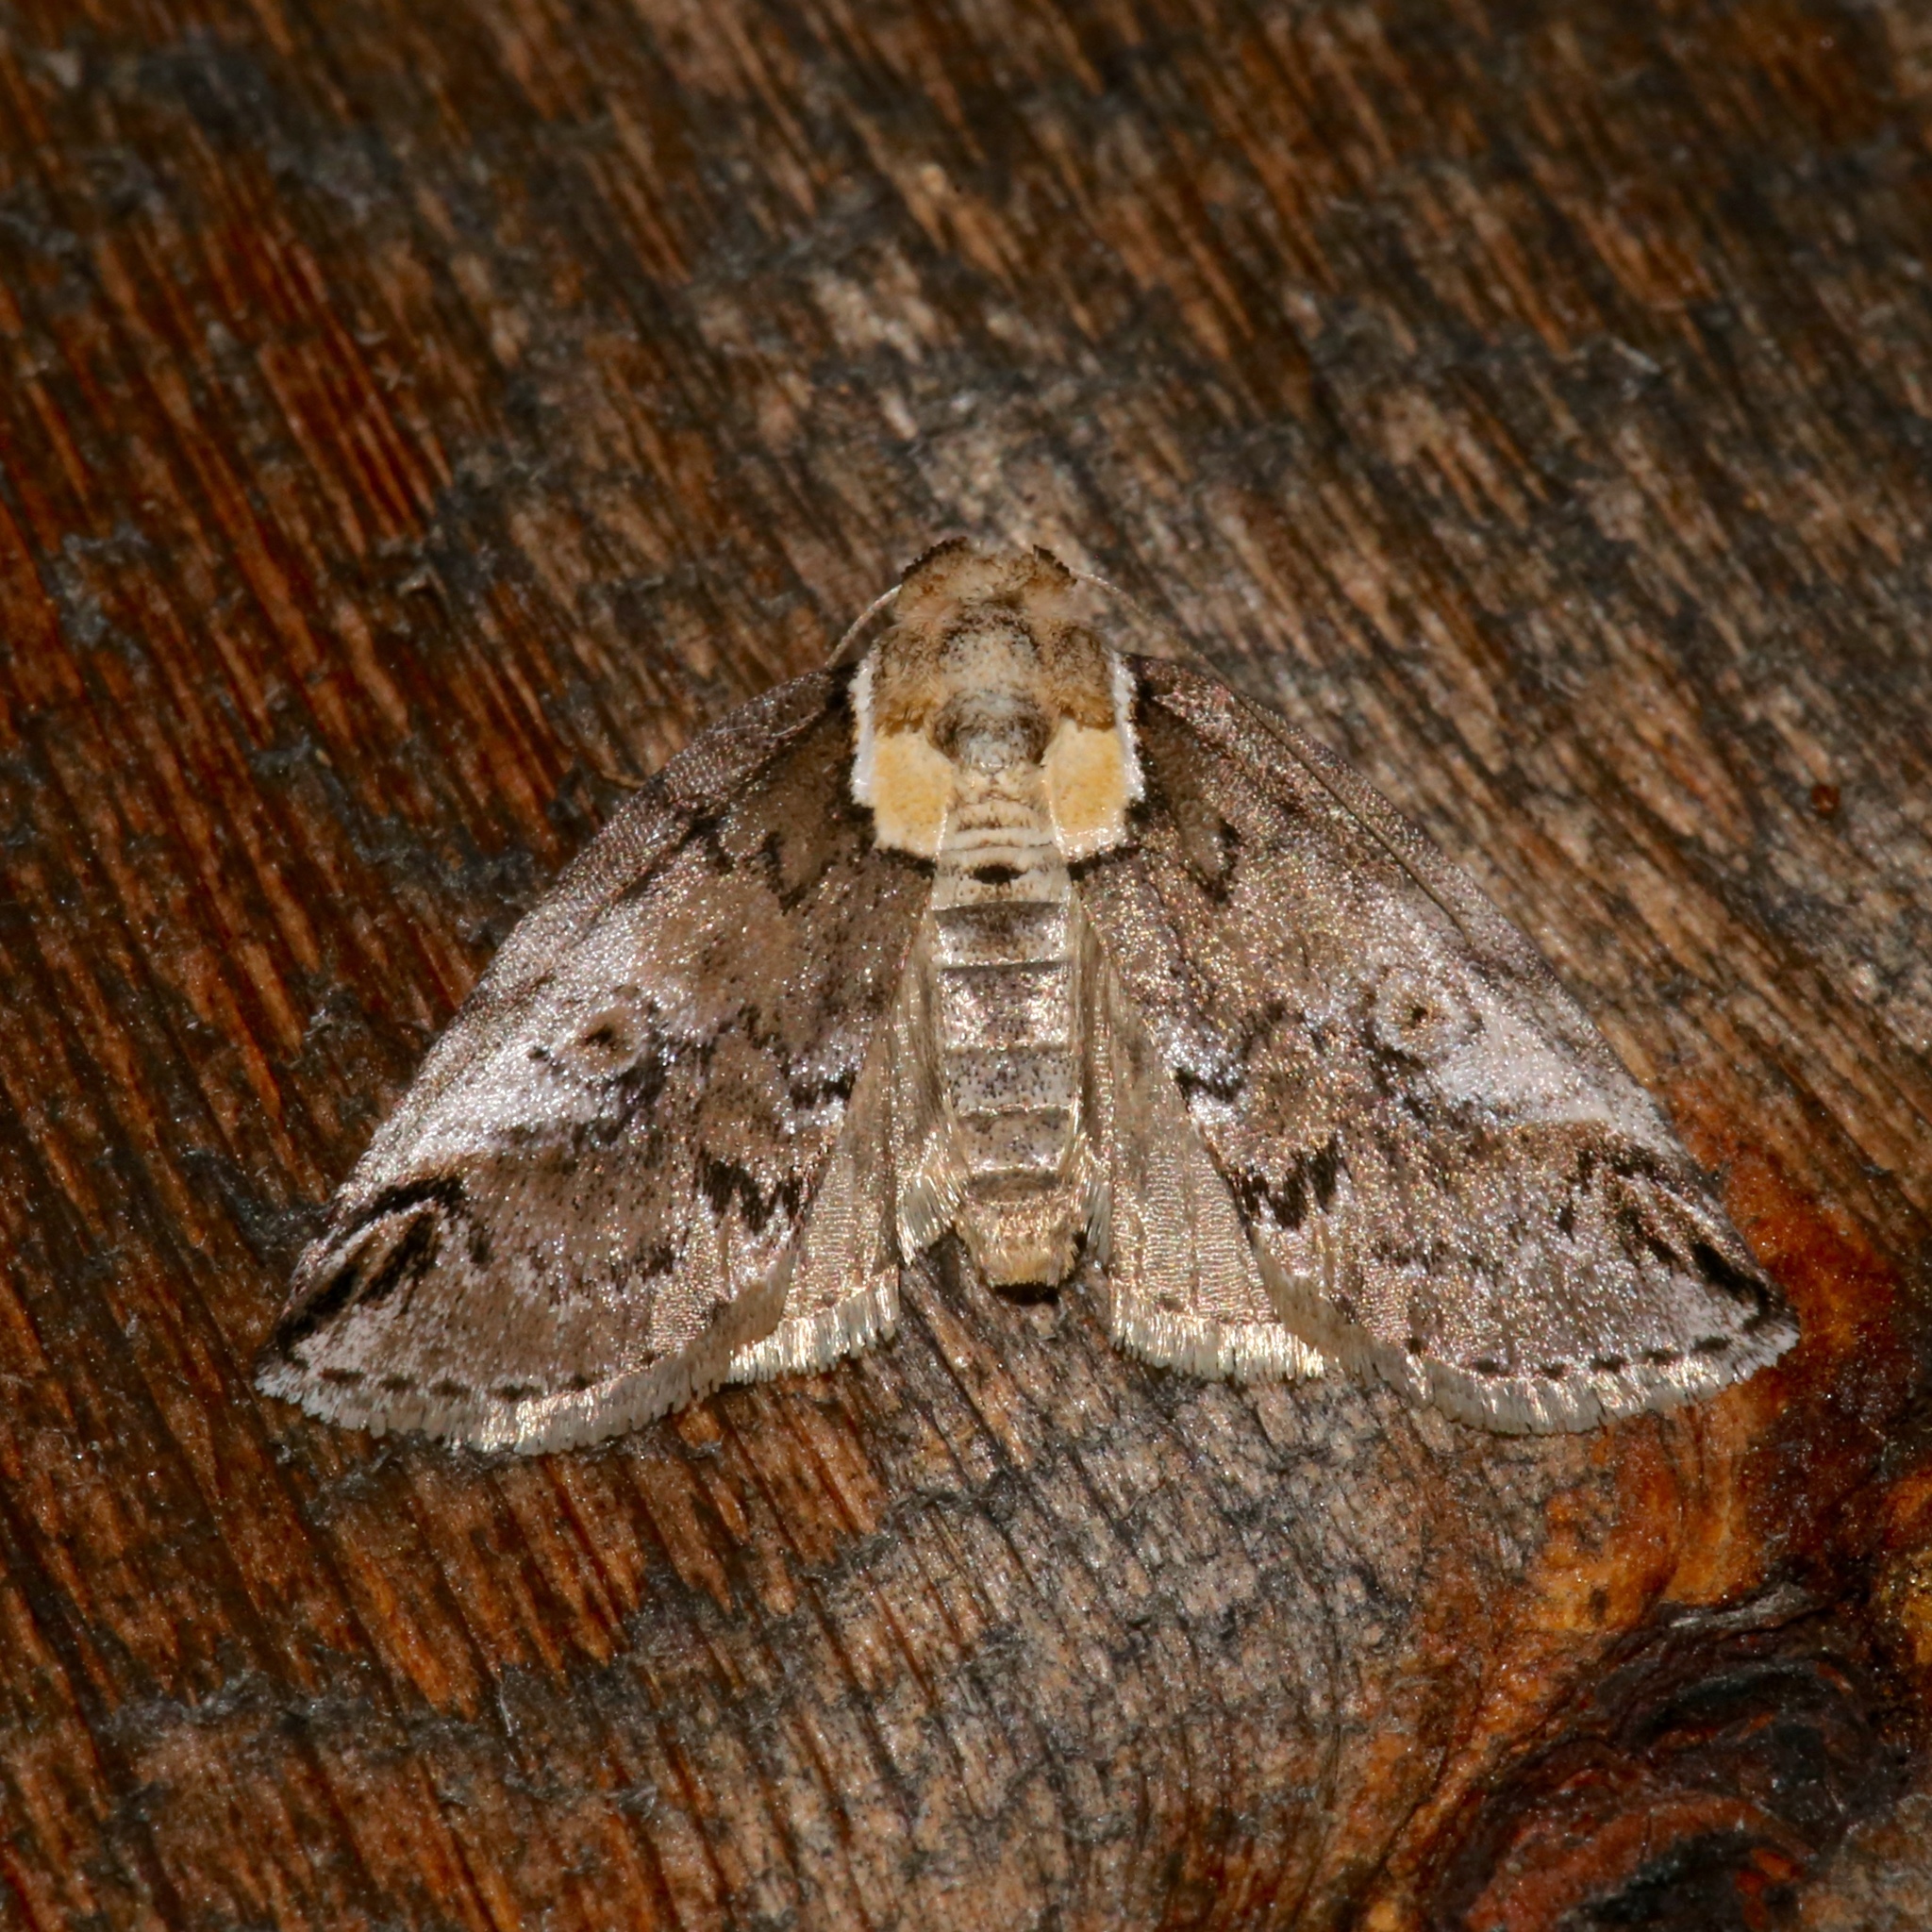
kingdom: Animalia
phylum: Arthropoda
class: Insecta
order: Lepidoptera
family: Nolidae
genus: Baileya
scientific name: Baileya ophthalmica
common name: Eyed baileya moth
